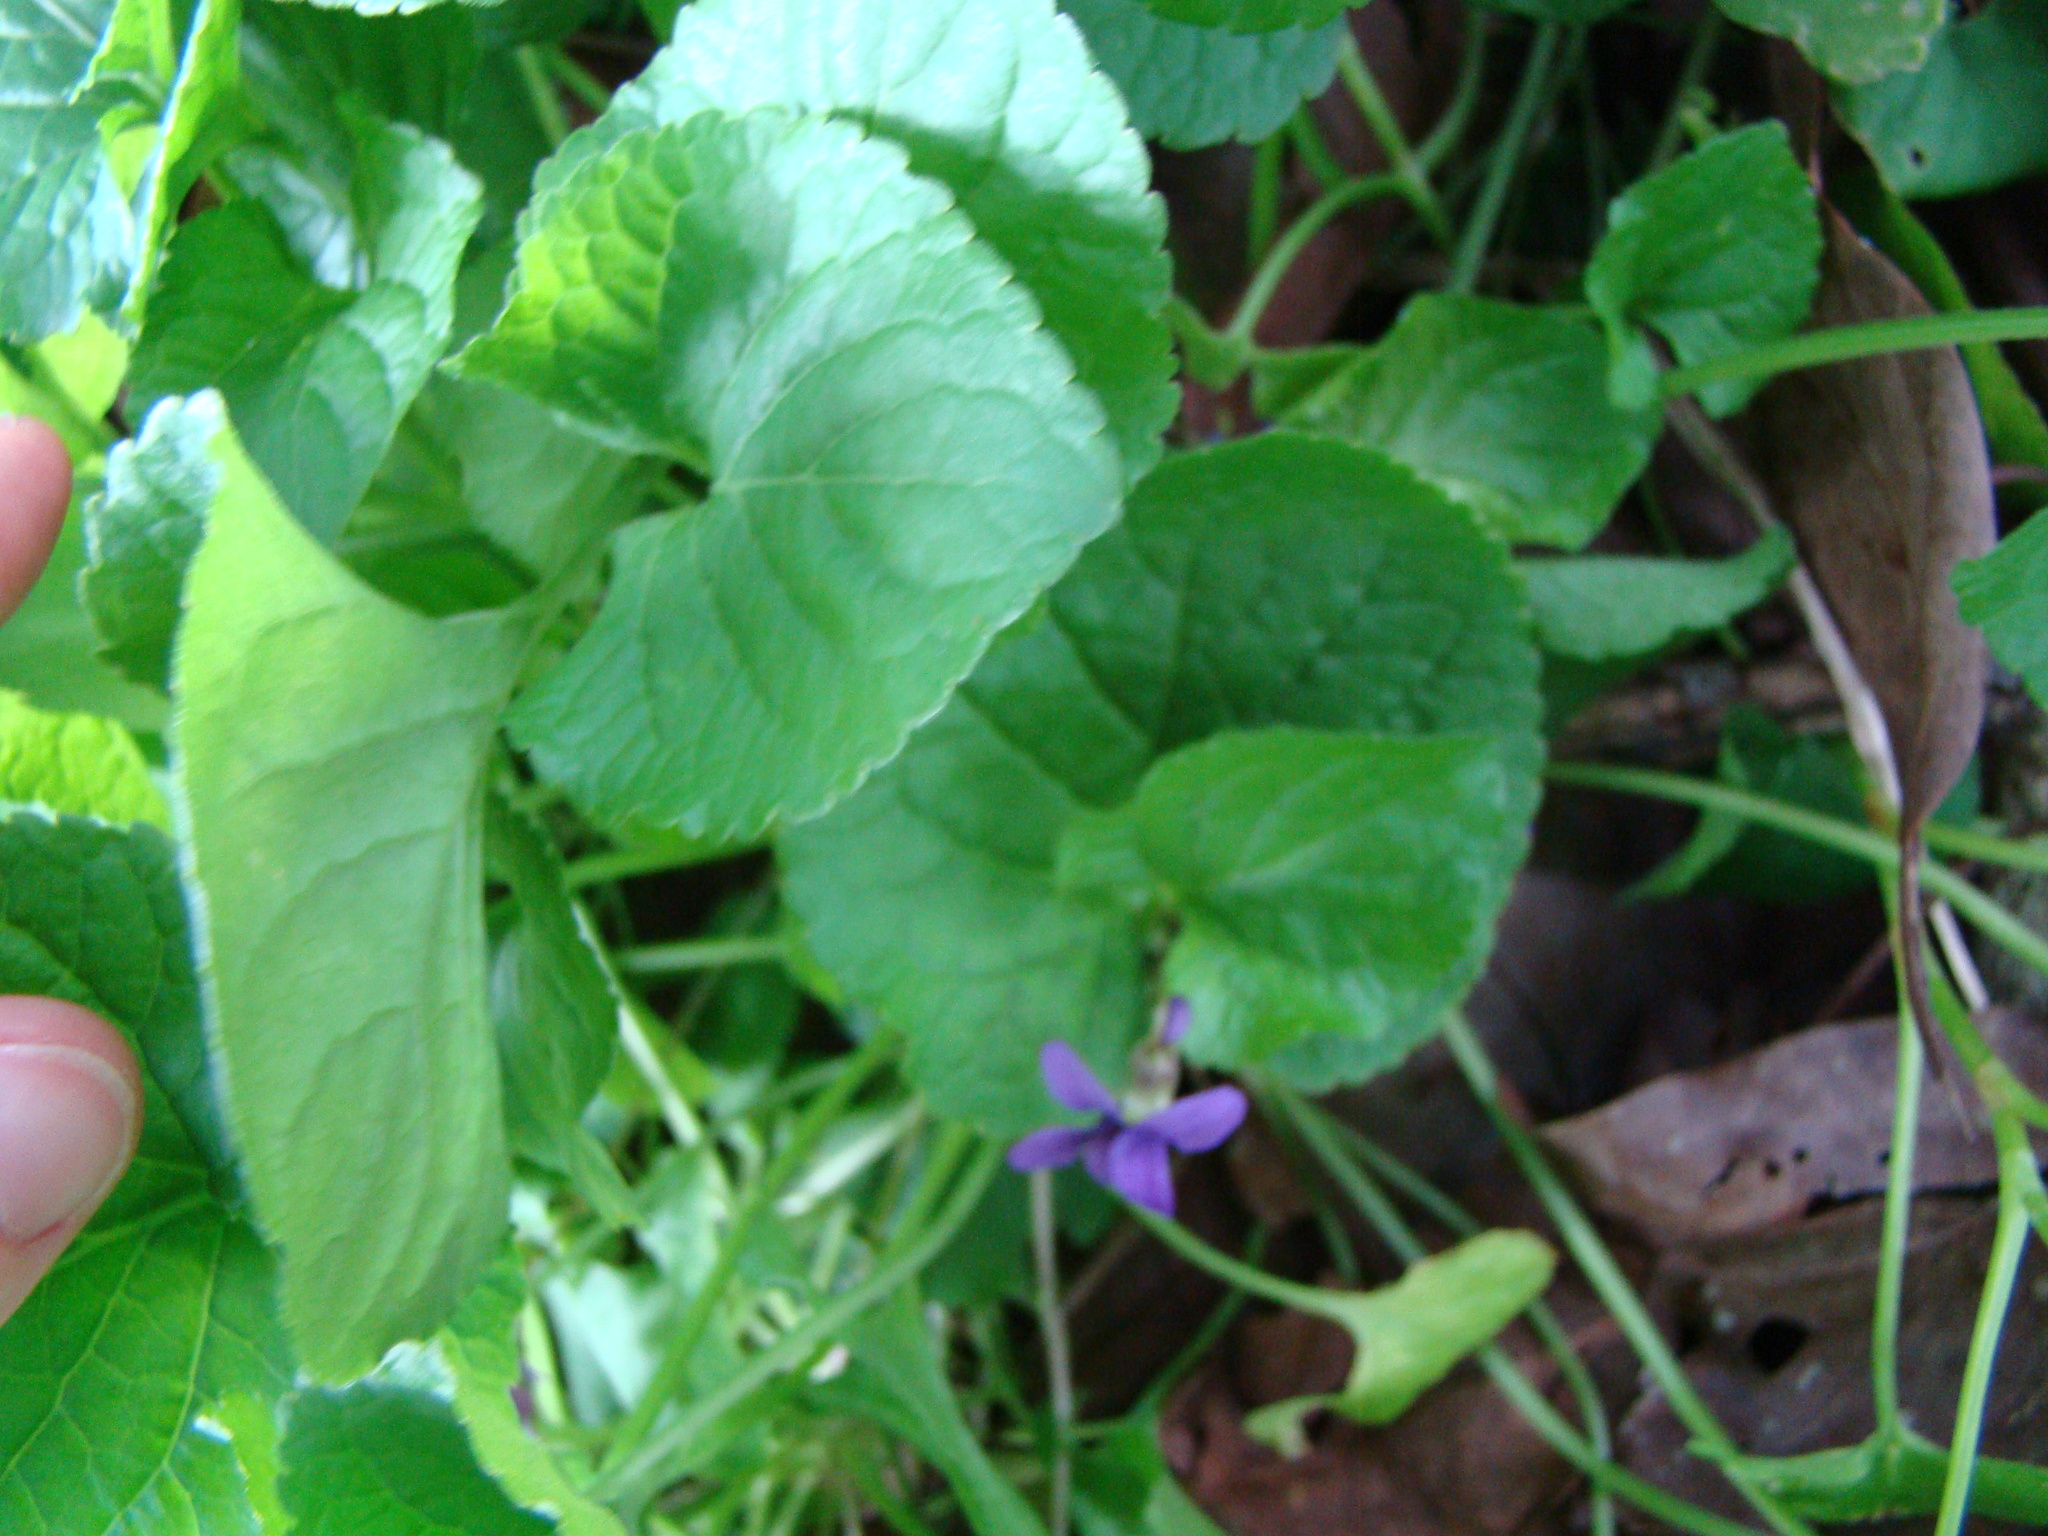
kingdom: Plantae
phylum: Tracheophyta
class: Magnoliopsida
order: Malpighiales
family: Violaceae
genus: Viola
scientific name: Viola odorata
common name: Sweet violet
